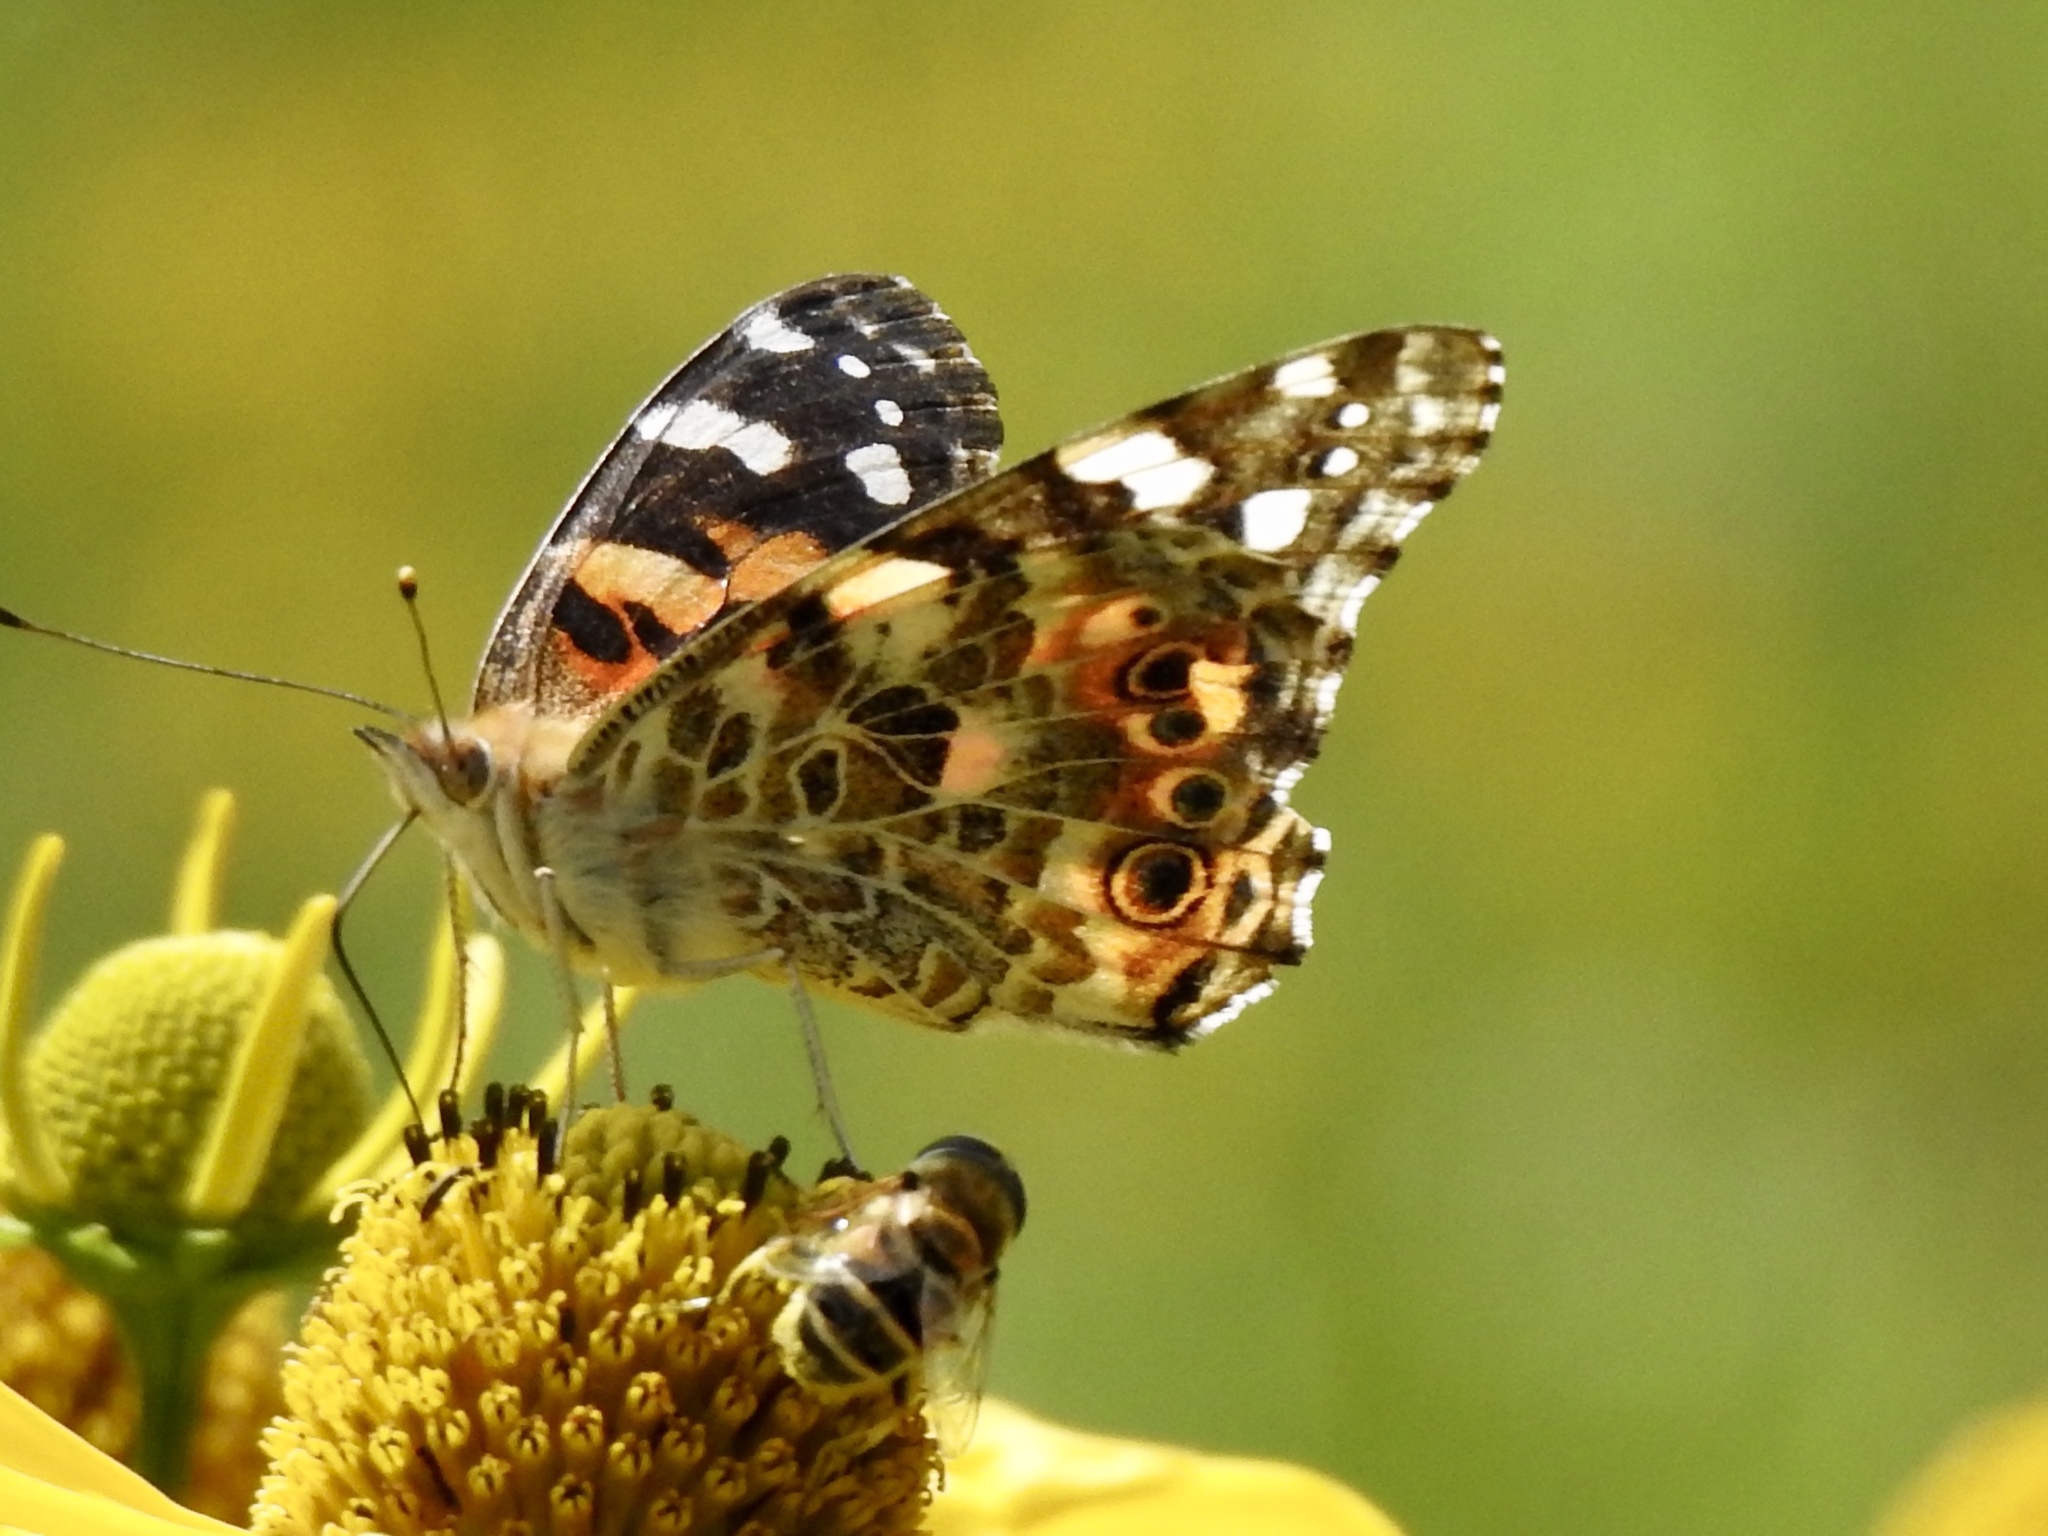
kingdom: Animalia
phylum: Arthropoda
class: Insecta
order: Lepidoptera
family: Nymphalidae
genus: Vanessa
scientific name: Vanessa cardui
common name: Painted lady
